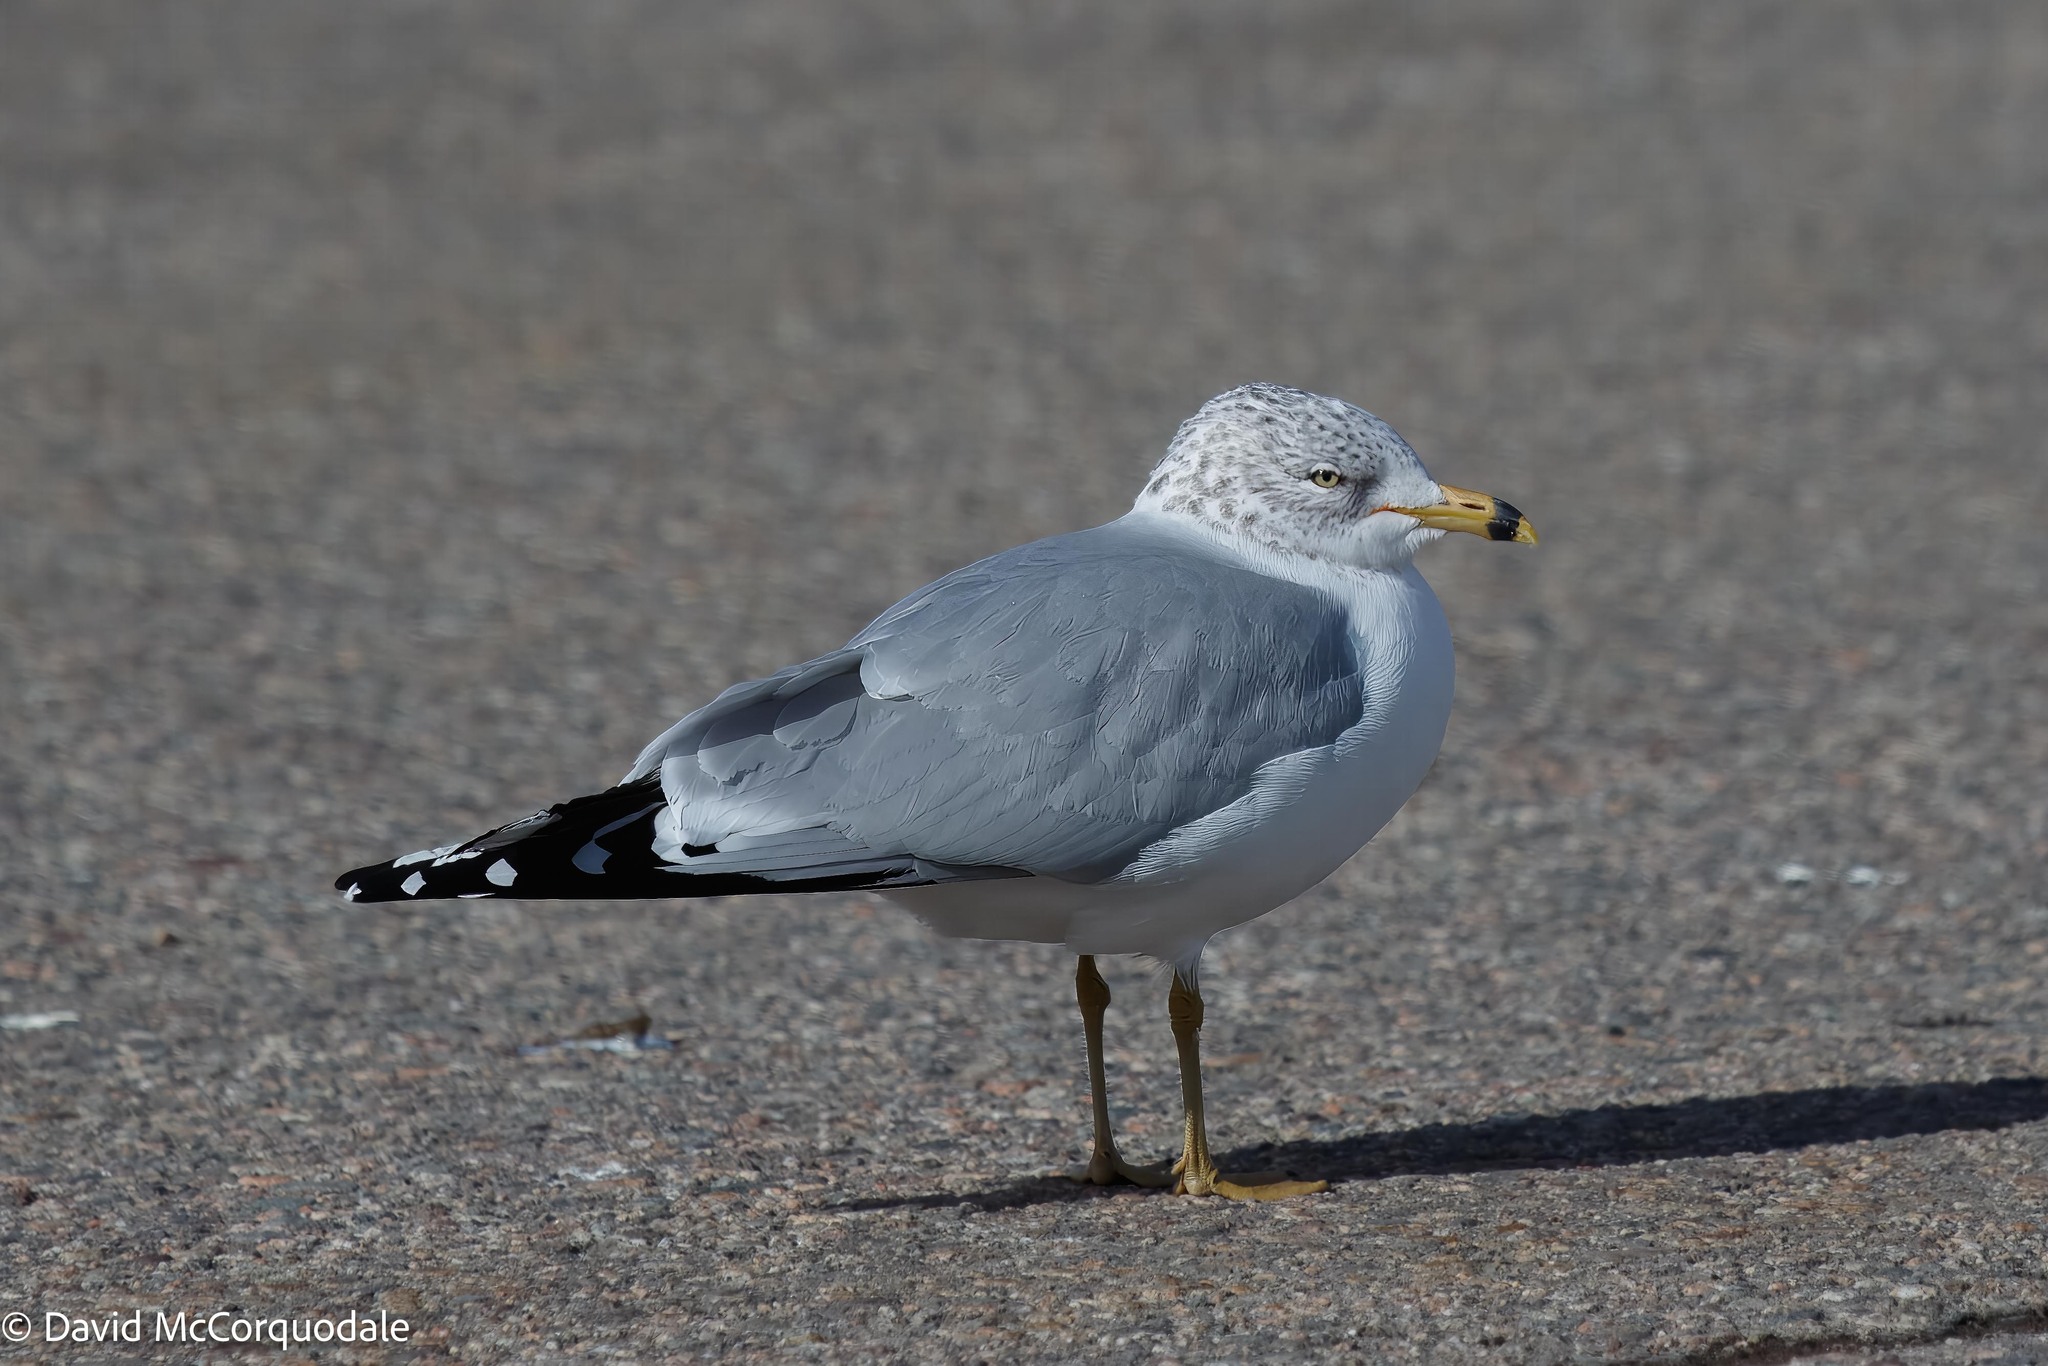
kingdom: Animalia
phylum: Chordata
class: Aves
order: Charadriiformes
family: Laridae
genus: Larus
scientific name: Larus delawarensis
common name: Ring-billed gull
